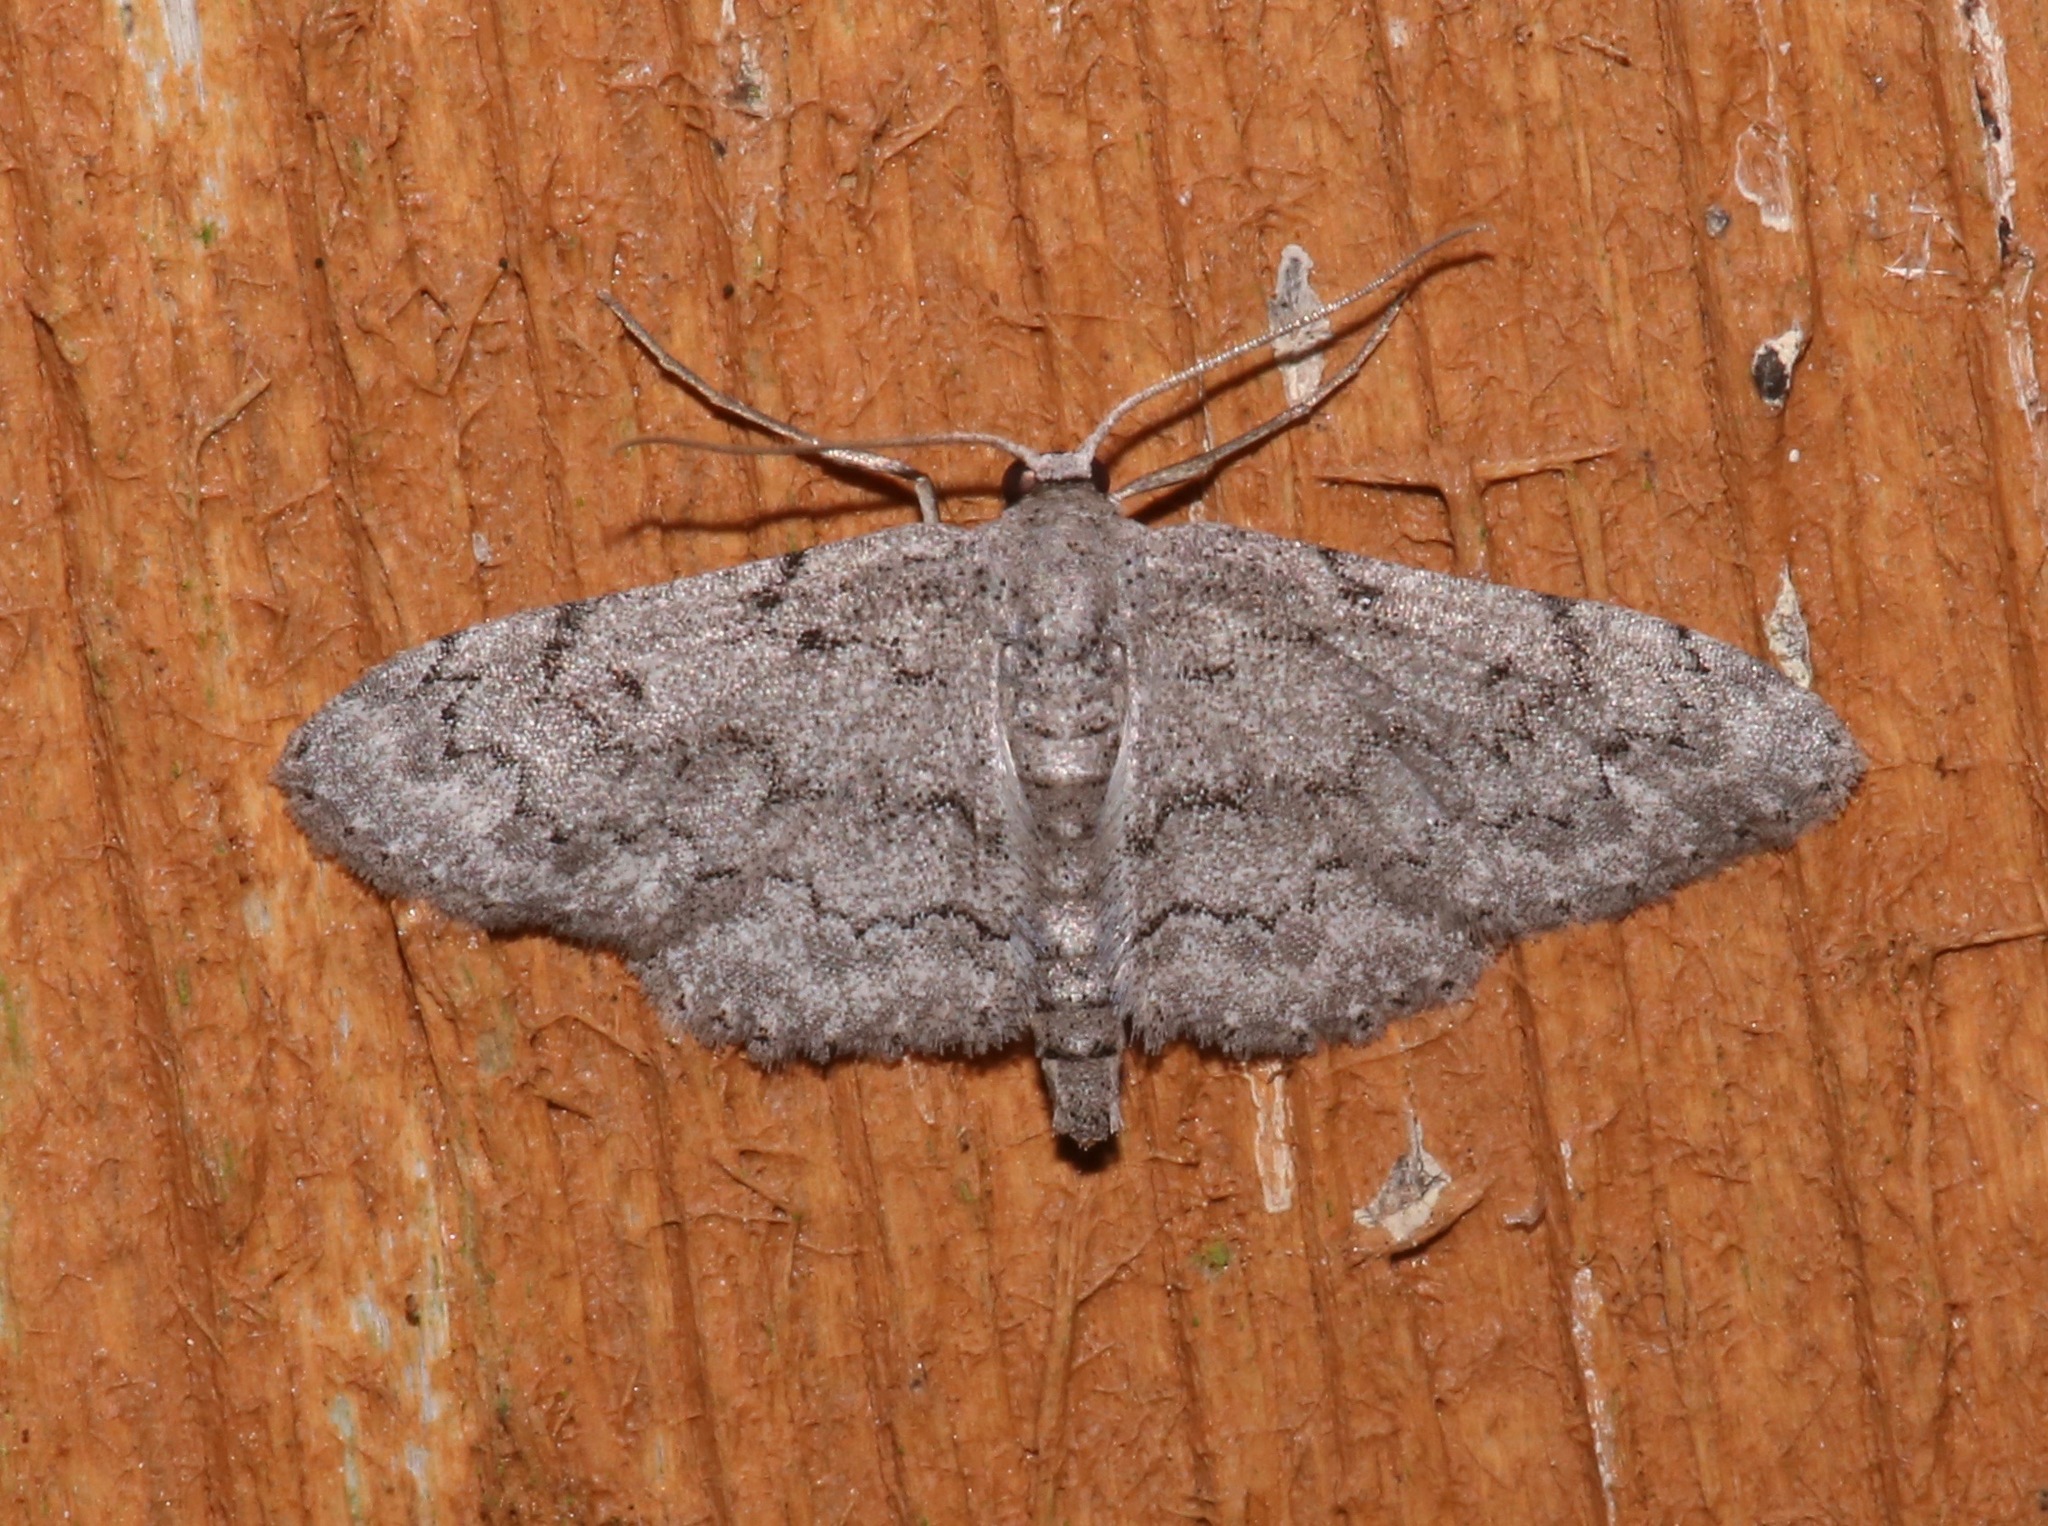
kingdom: Animalia
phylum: Arthropoda
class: Insecta
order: Lepidoptera
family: Geometridae
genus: Idaea
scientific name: Idaea violacearia
